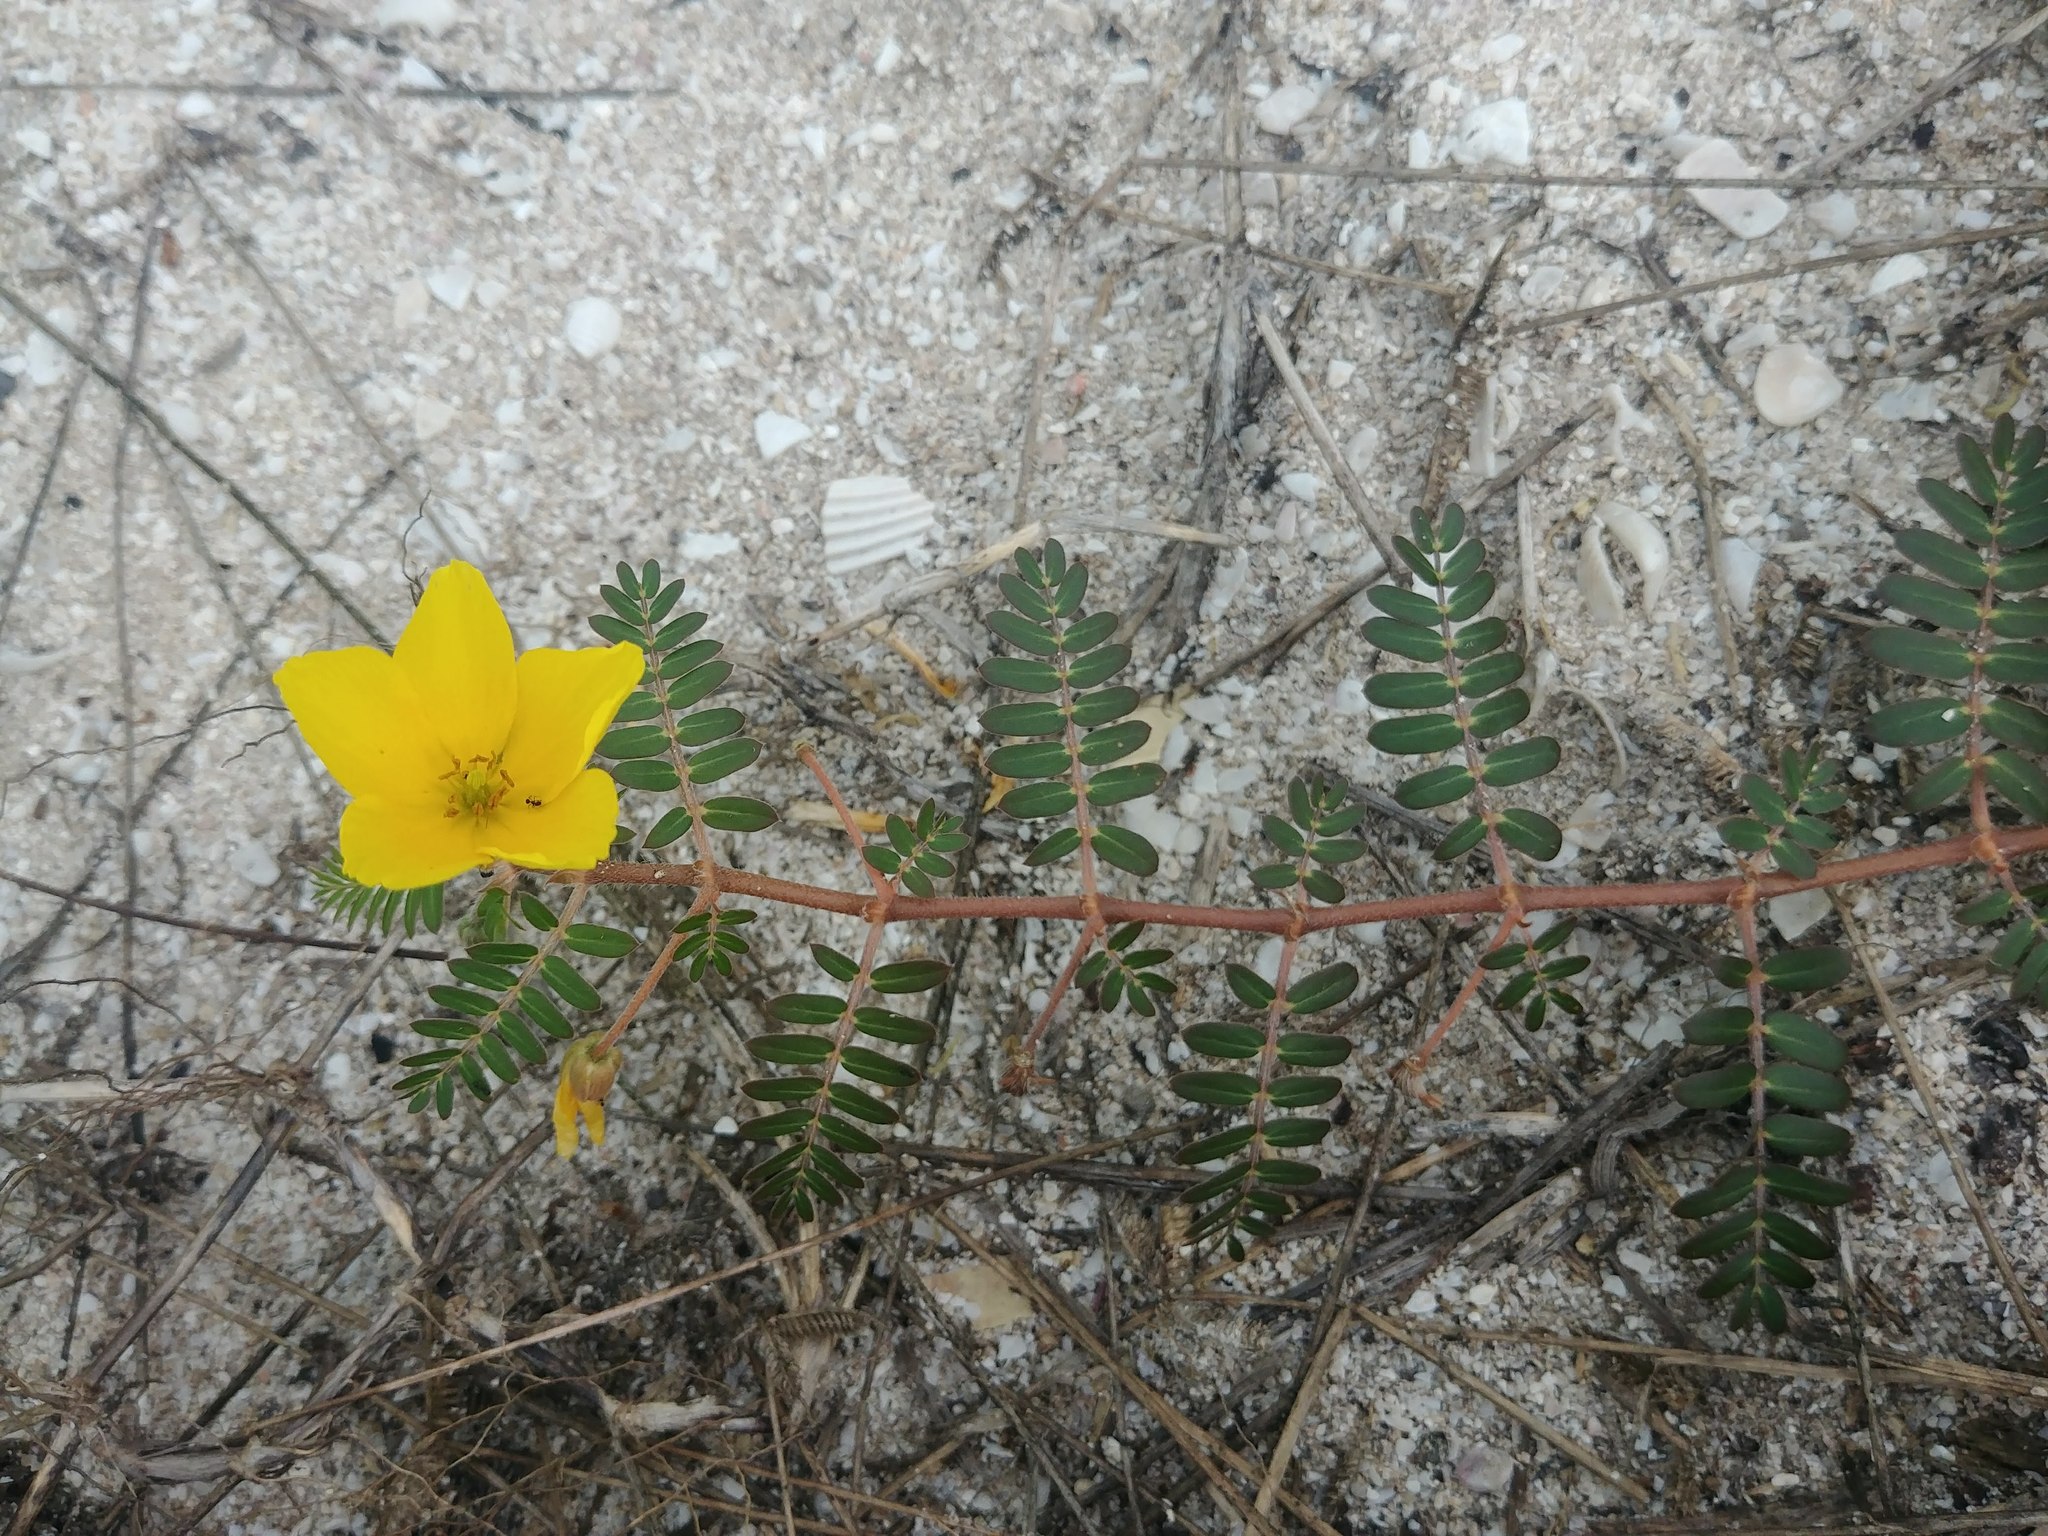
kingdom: Plantae
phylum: Tracheophyta
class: Magnoliopsida
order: Zygophyllales
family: Zygophyllaceae
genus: Tribulus
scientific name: Tribulus cistoides
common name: Jamaican feverplant
